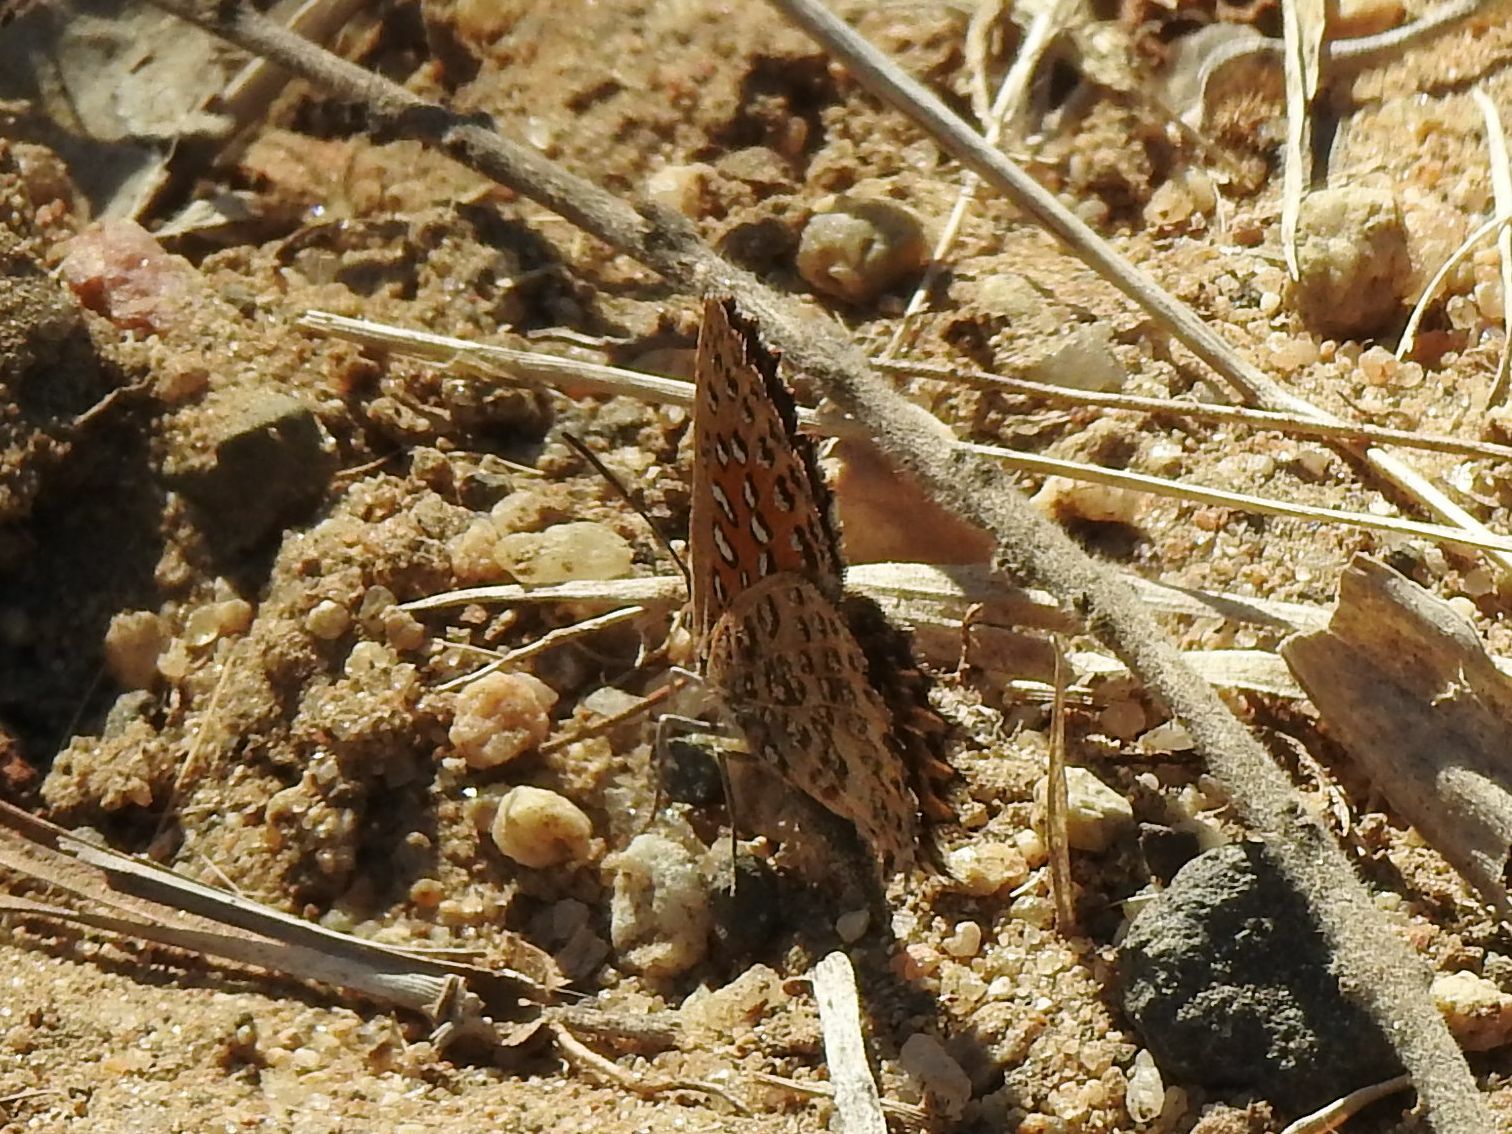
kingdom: Animalia
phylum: Arthropoda
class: Insecta
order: Lepidoptera
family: Lycaenidae
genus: Aloeides
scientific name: Aloeides taikosama
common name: Dusky copper
